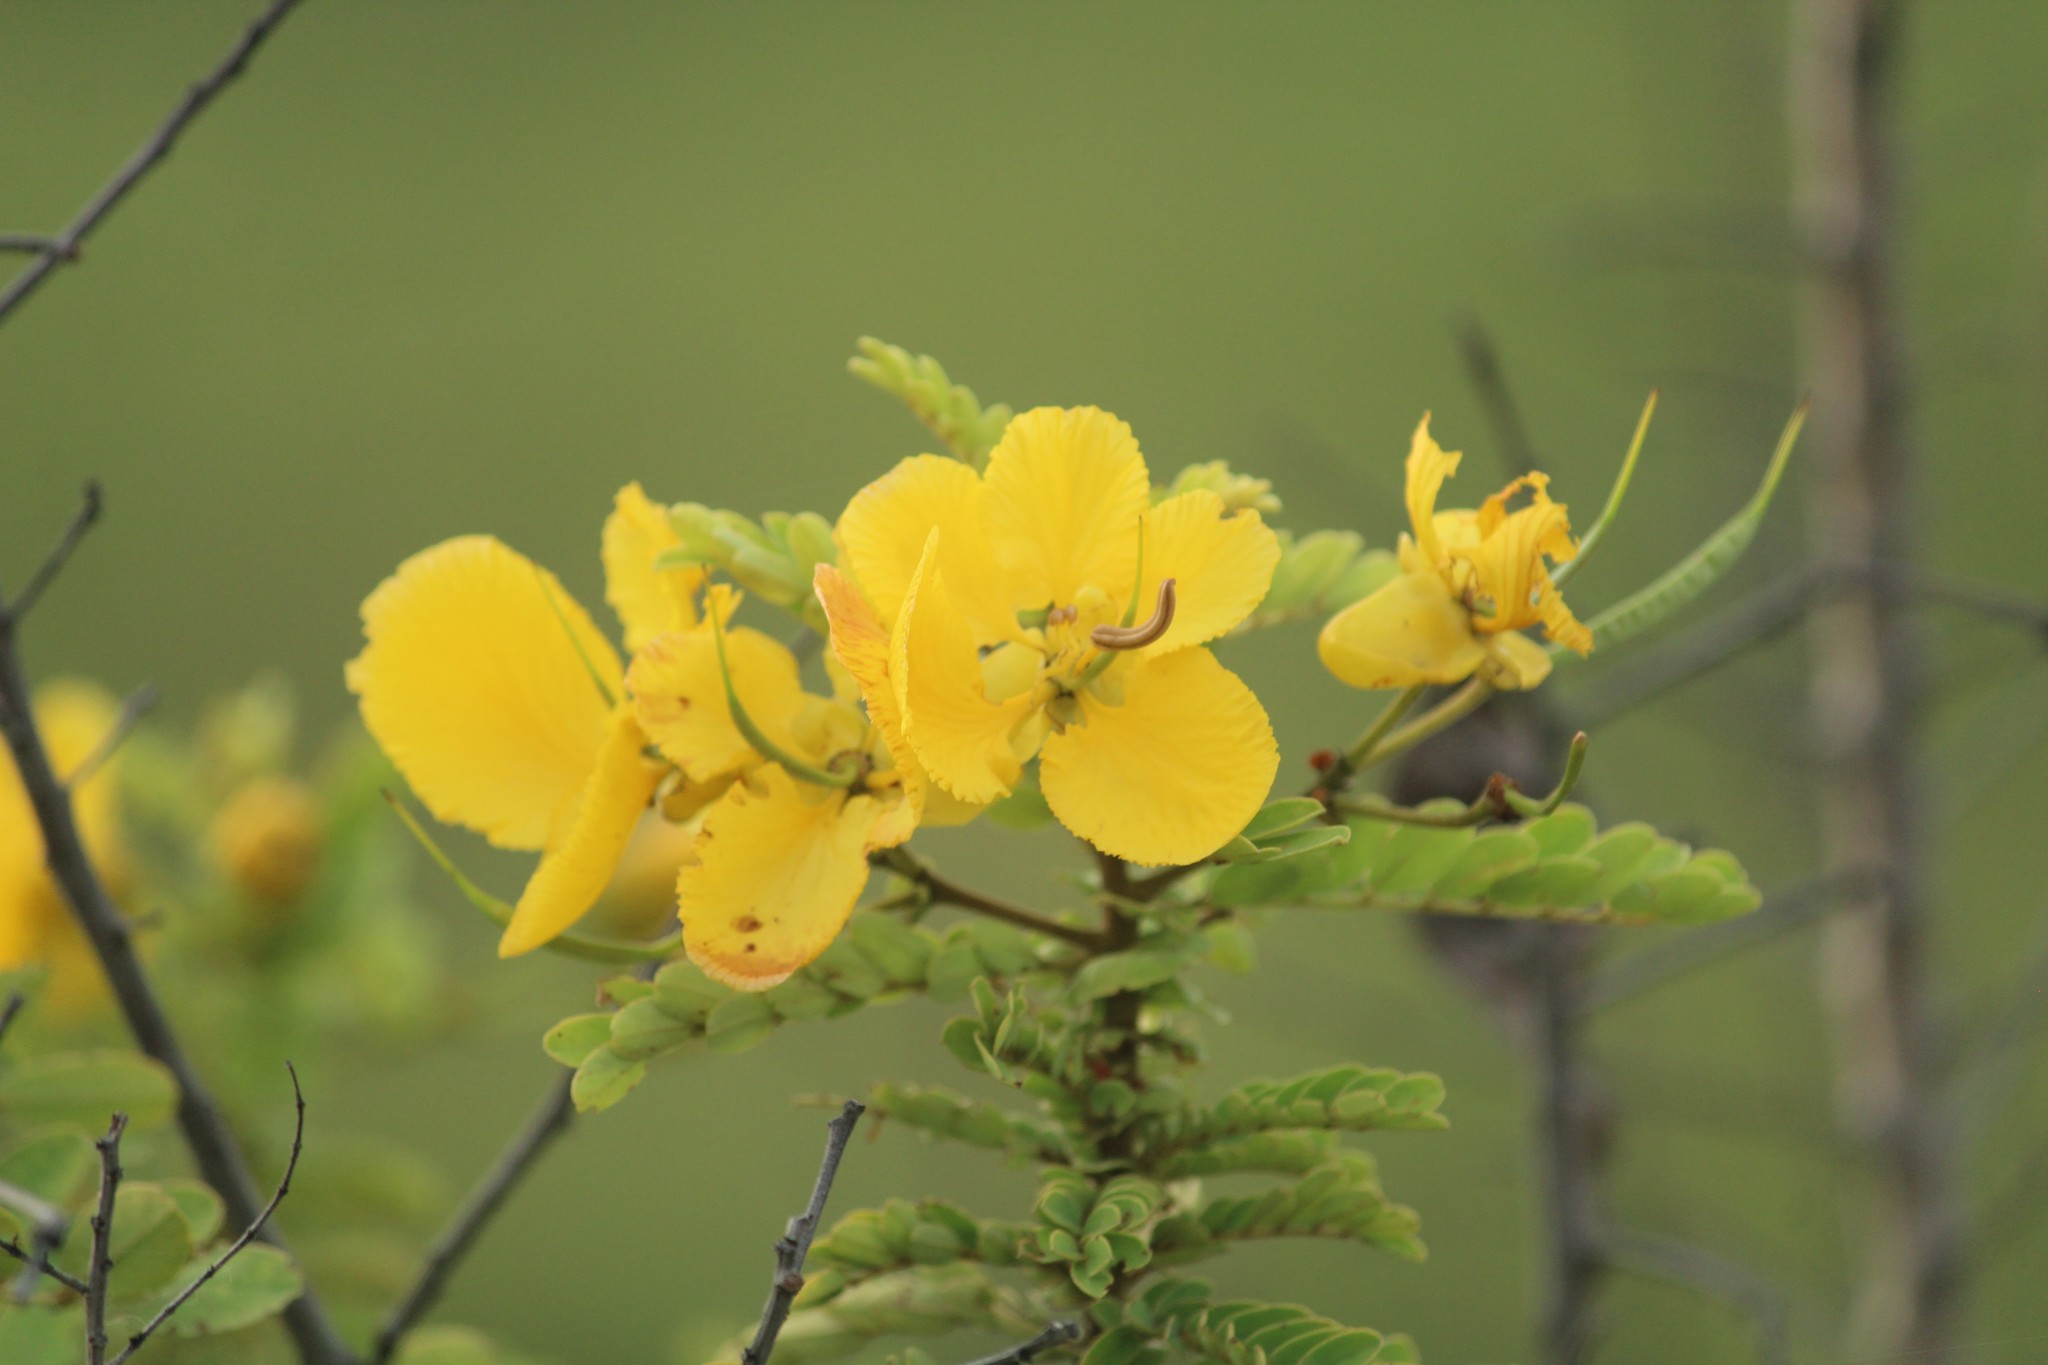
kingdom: Plantae
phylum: Tracheophyta
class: Magnoliopsida
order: Fabales
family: Fabaceae
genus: Senna
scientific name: Senna auriculata
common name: Tanner's cassia
